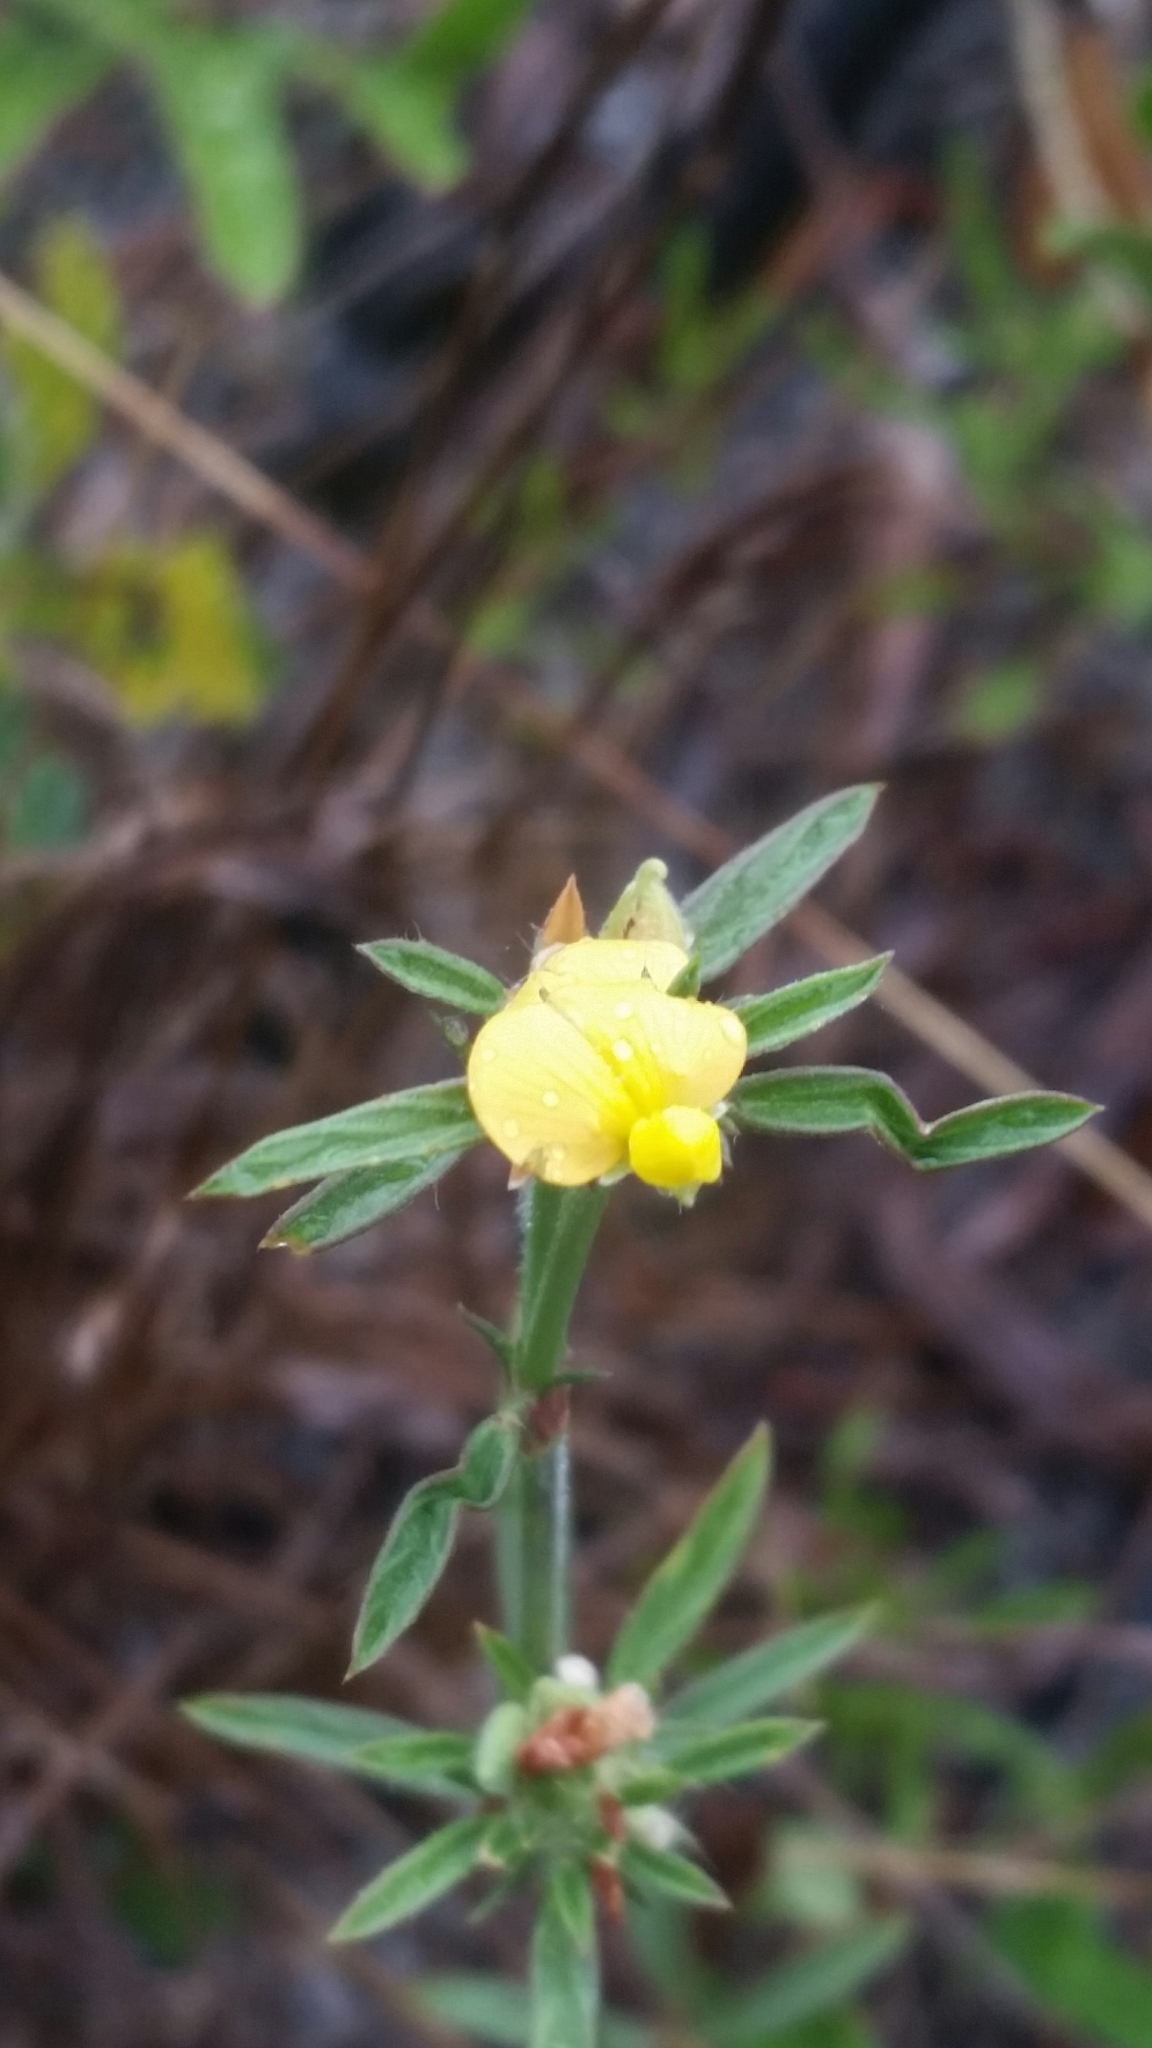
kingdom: Plantae
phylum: Tracheophyta
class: Magnoliopsida
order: Fabales
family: Fabaceae
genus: Stylosanthes
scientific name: Stylosanthes biflora
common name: Two-flower pencil-flower
